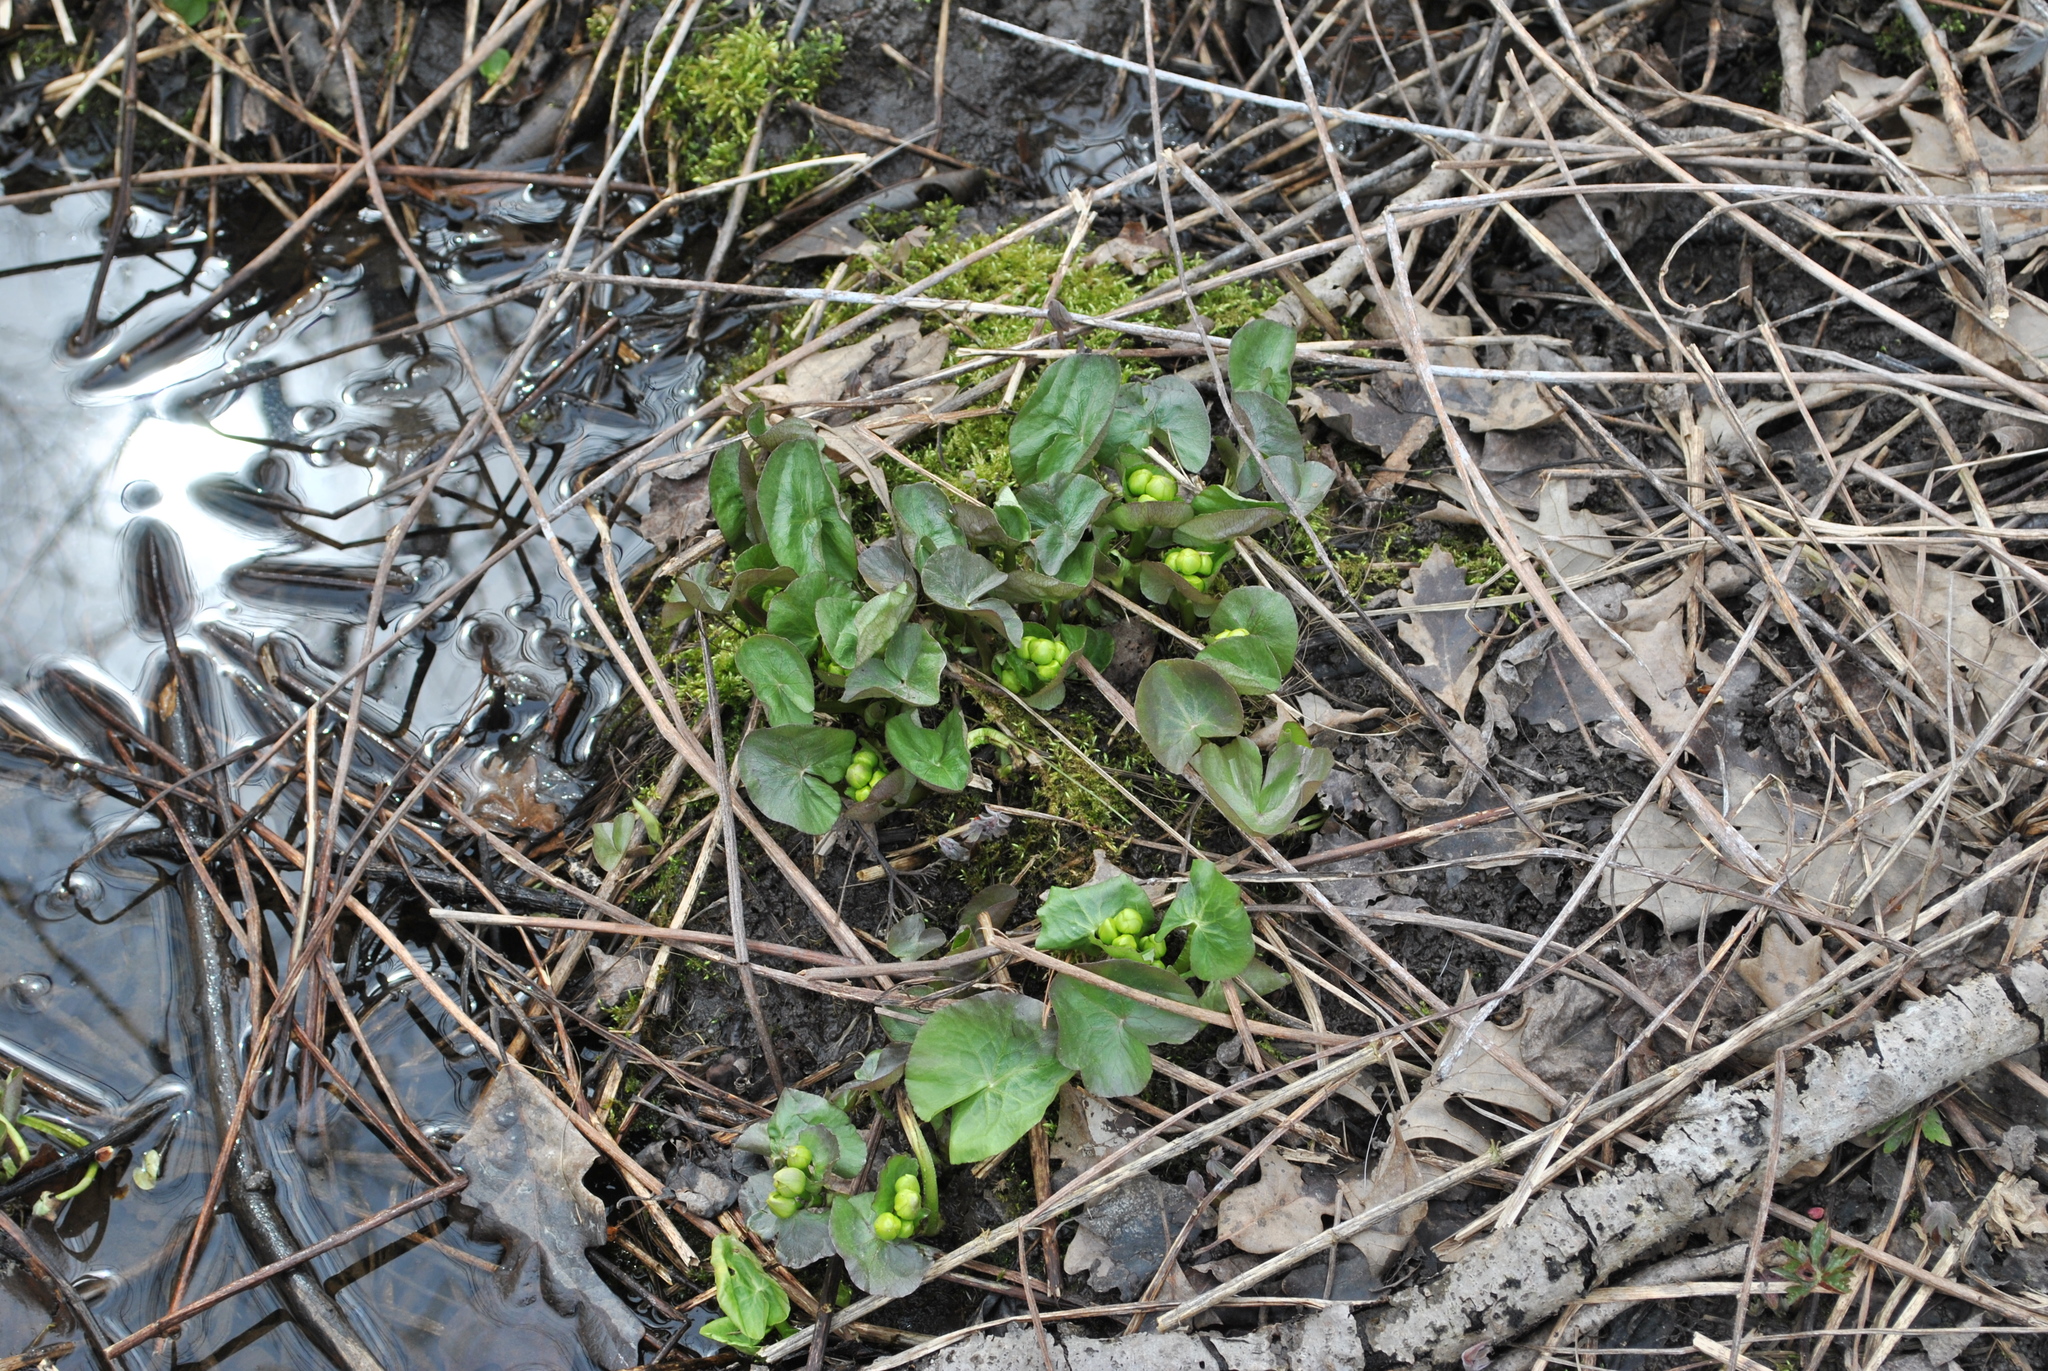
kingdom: Plantae
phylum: Tracheophyta
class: Magnoliopsida
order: Ranunculales
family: Ranunculaceae
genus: Caltha
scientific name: Caltha palustris
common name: Marsh marigold
